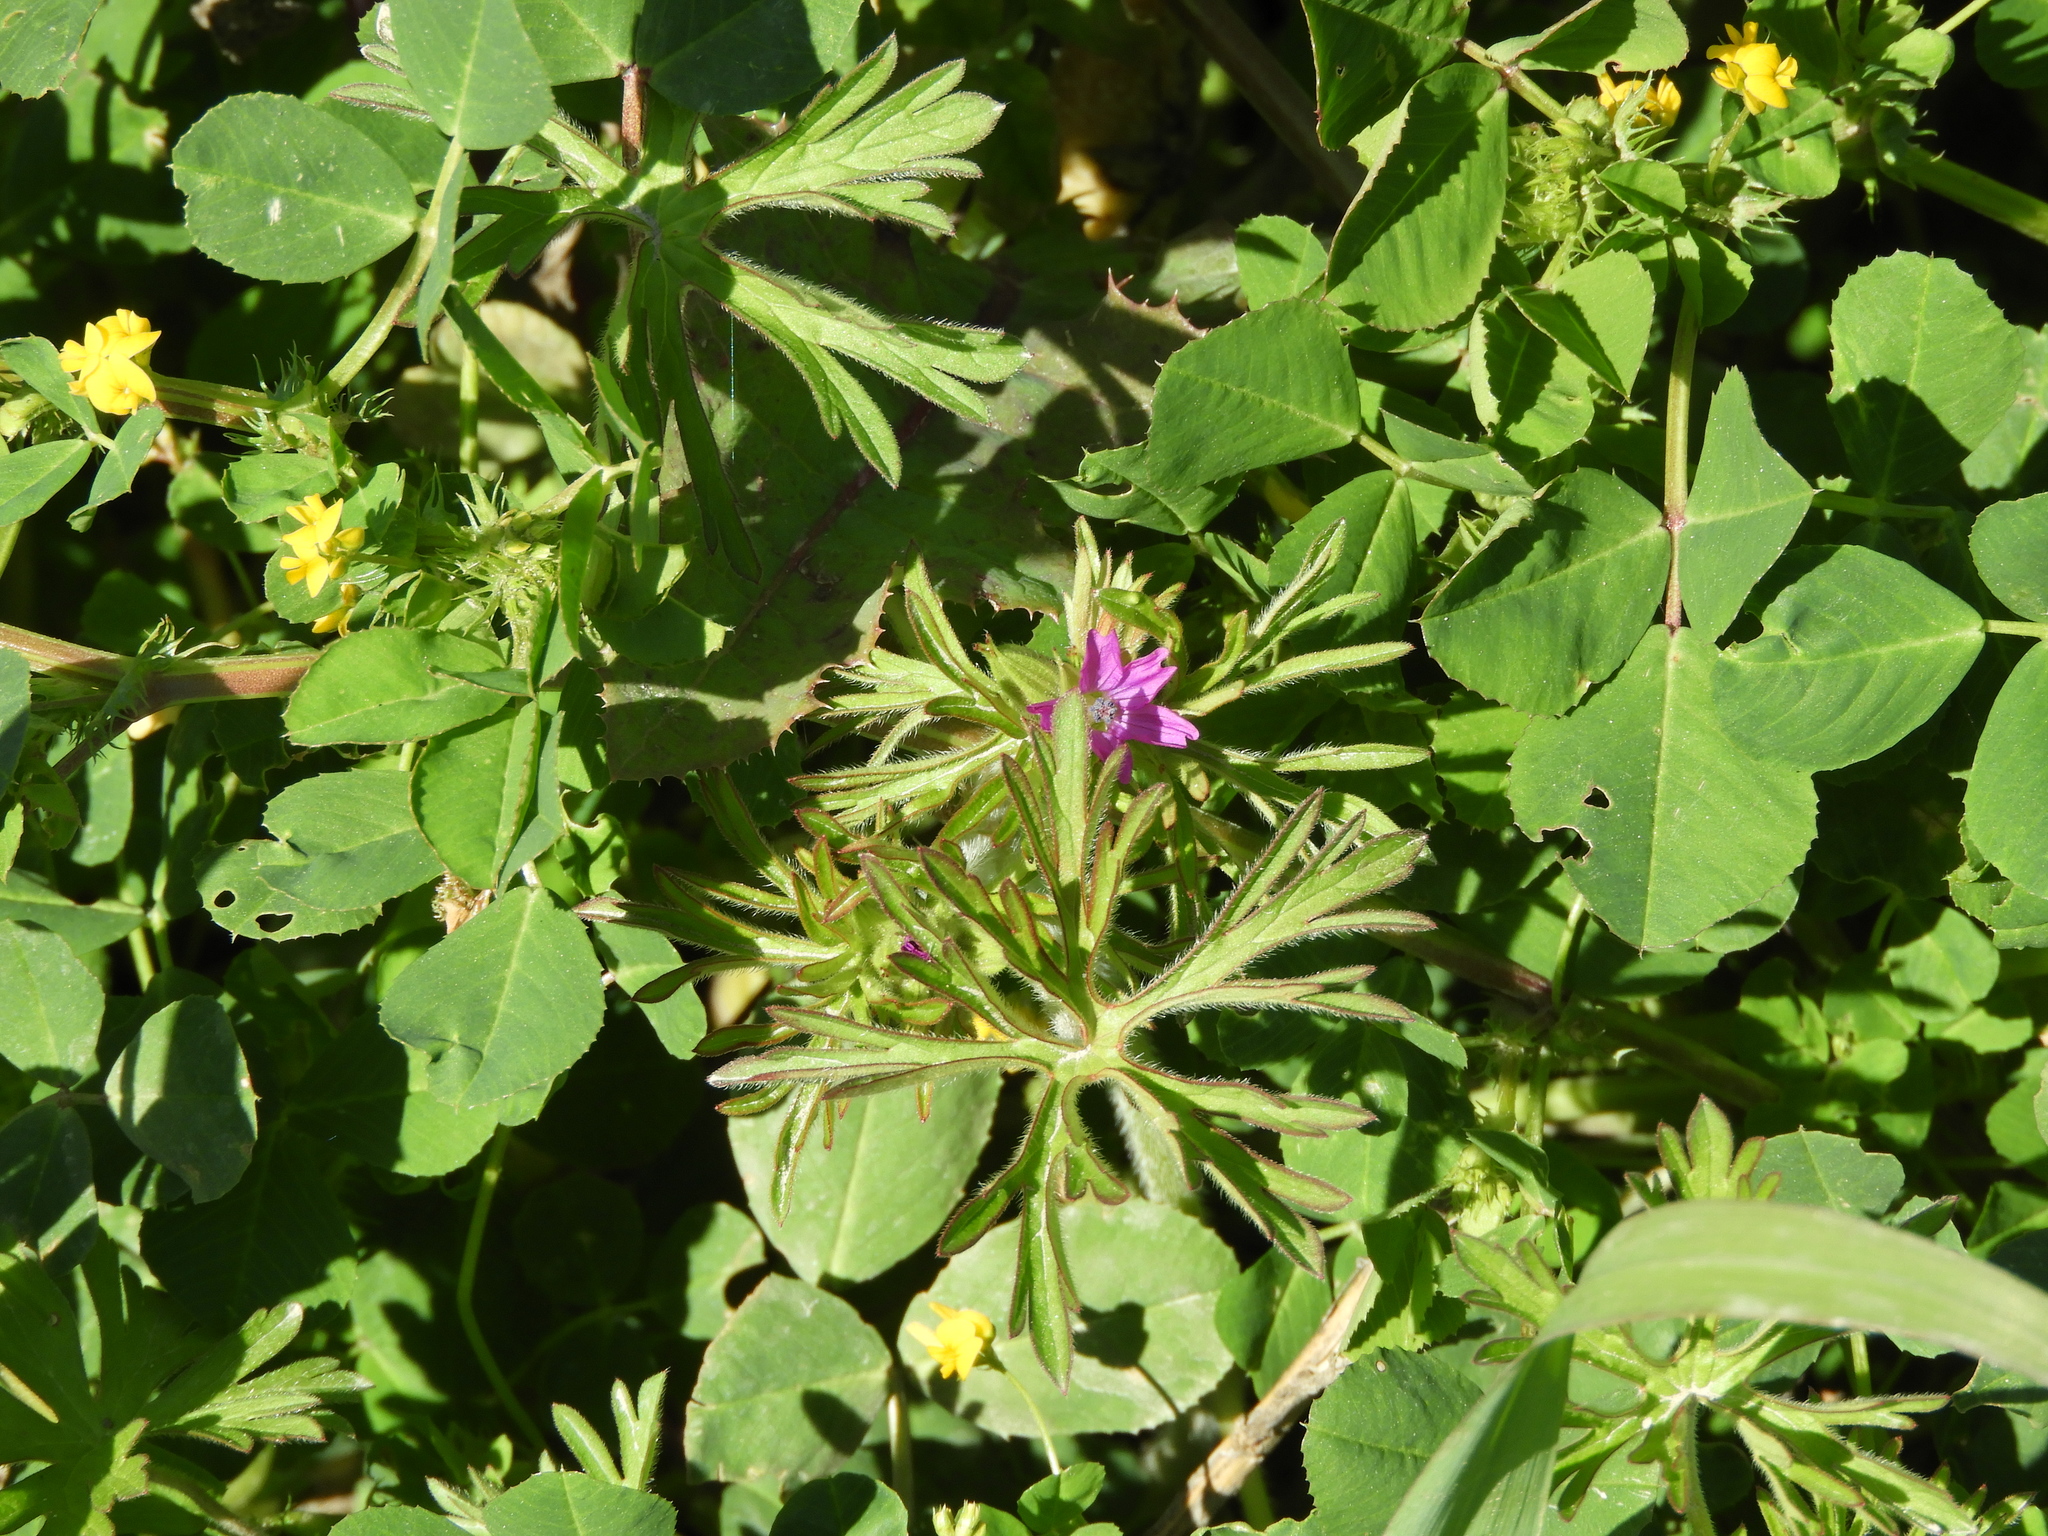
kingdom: Plantae
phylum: Tracheophyta
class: Magnoliopsida
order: Geraniales
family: Geraniaceae
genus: Geranium
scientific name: Geranium dissectum
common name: Cut-leaved crane's-bill
